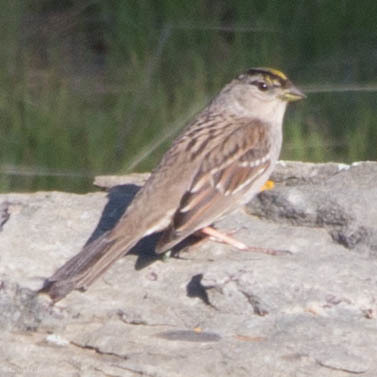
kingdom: Animalia
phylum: Chordata
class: Aves
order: Passeriformes
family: Passerellidae
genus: Zonotrichia
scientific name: Zonotrichia atricapilla
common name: Golden-crowned sparrow
